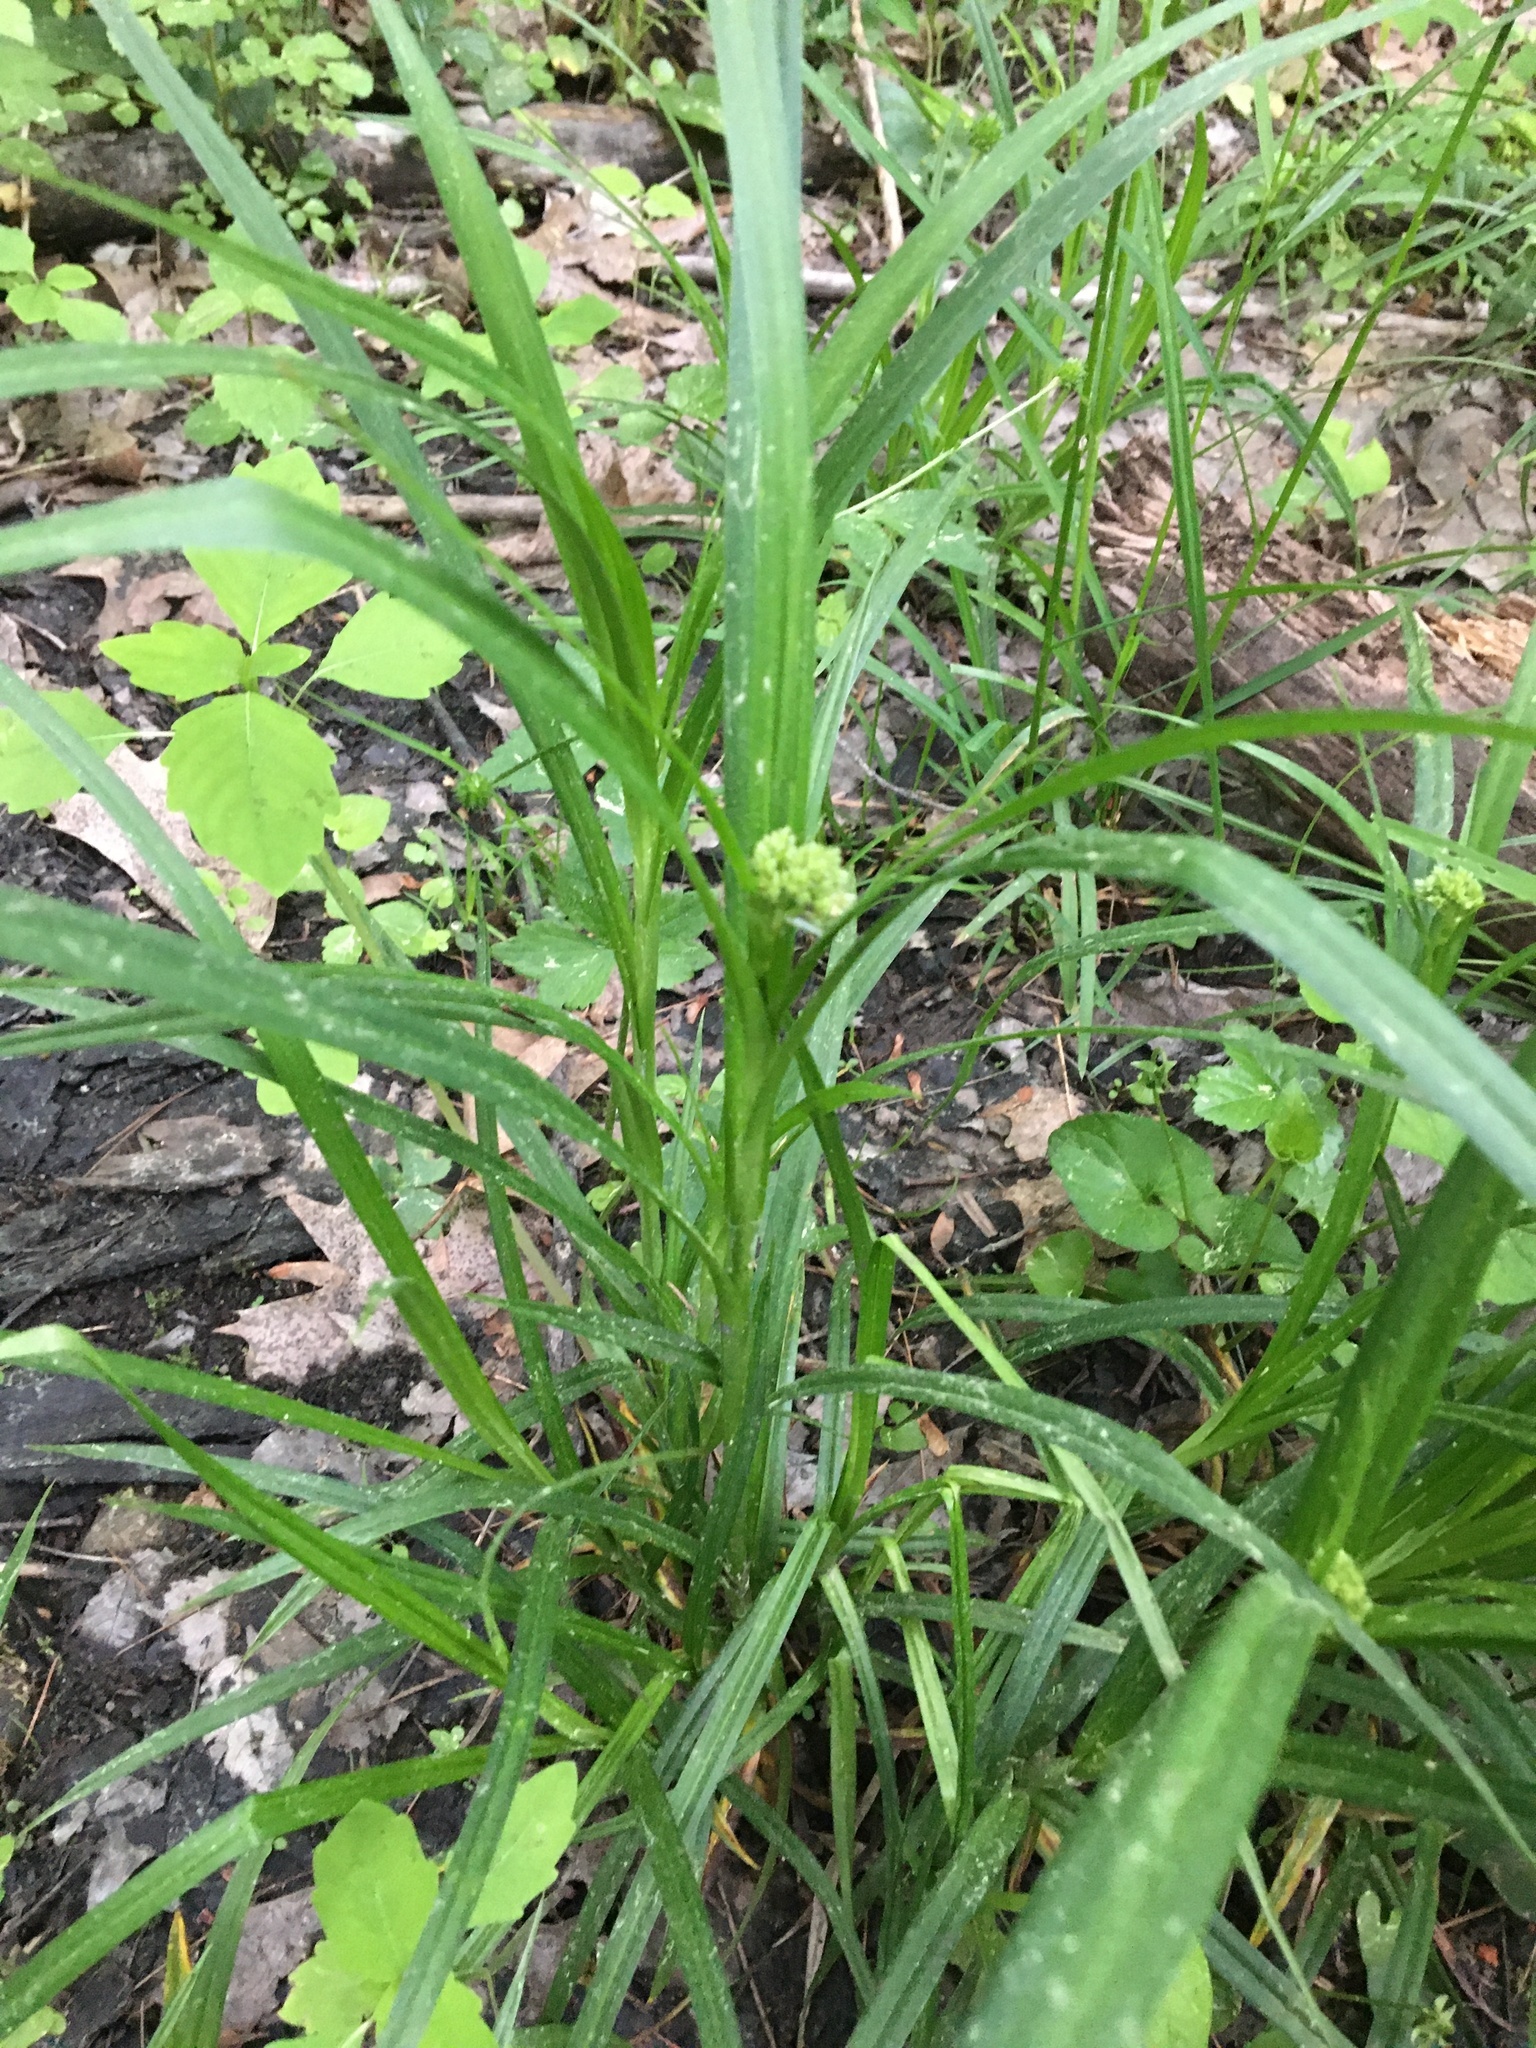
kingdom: Plantae
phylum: Tracheophyta
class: Magnoliopsida
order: Ericales
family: Balsaminaceae
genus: Impatiens
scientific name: Impatiens
